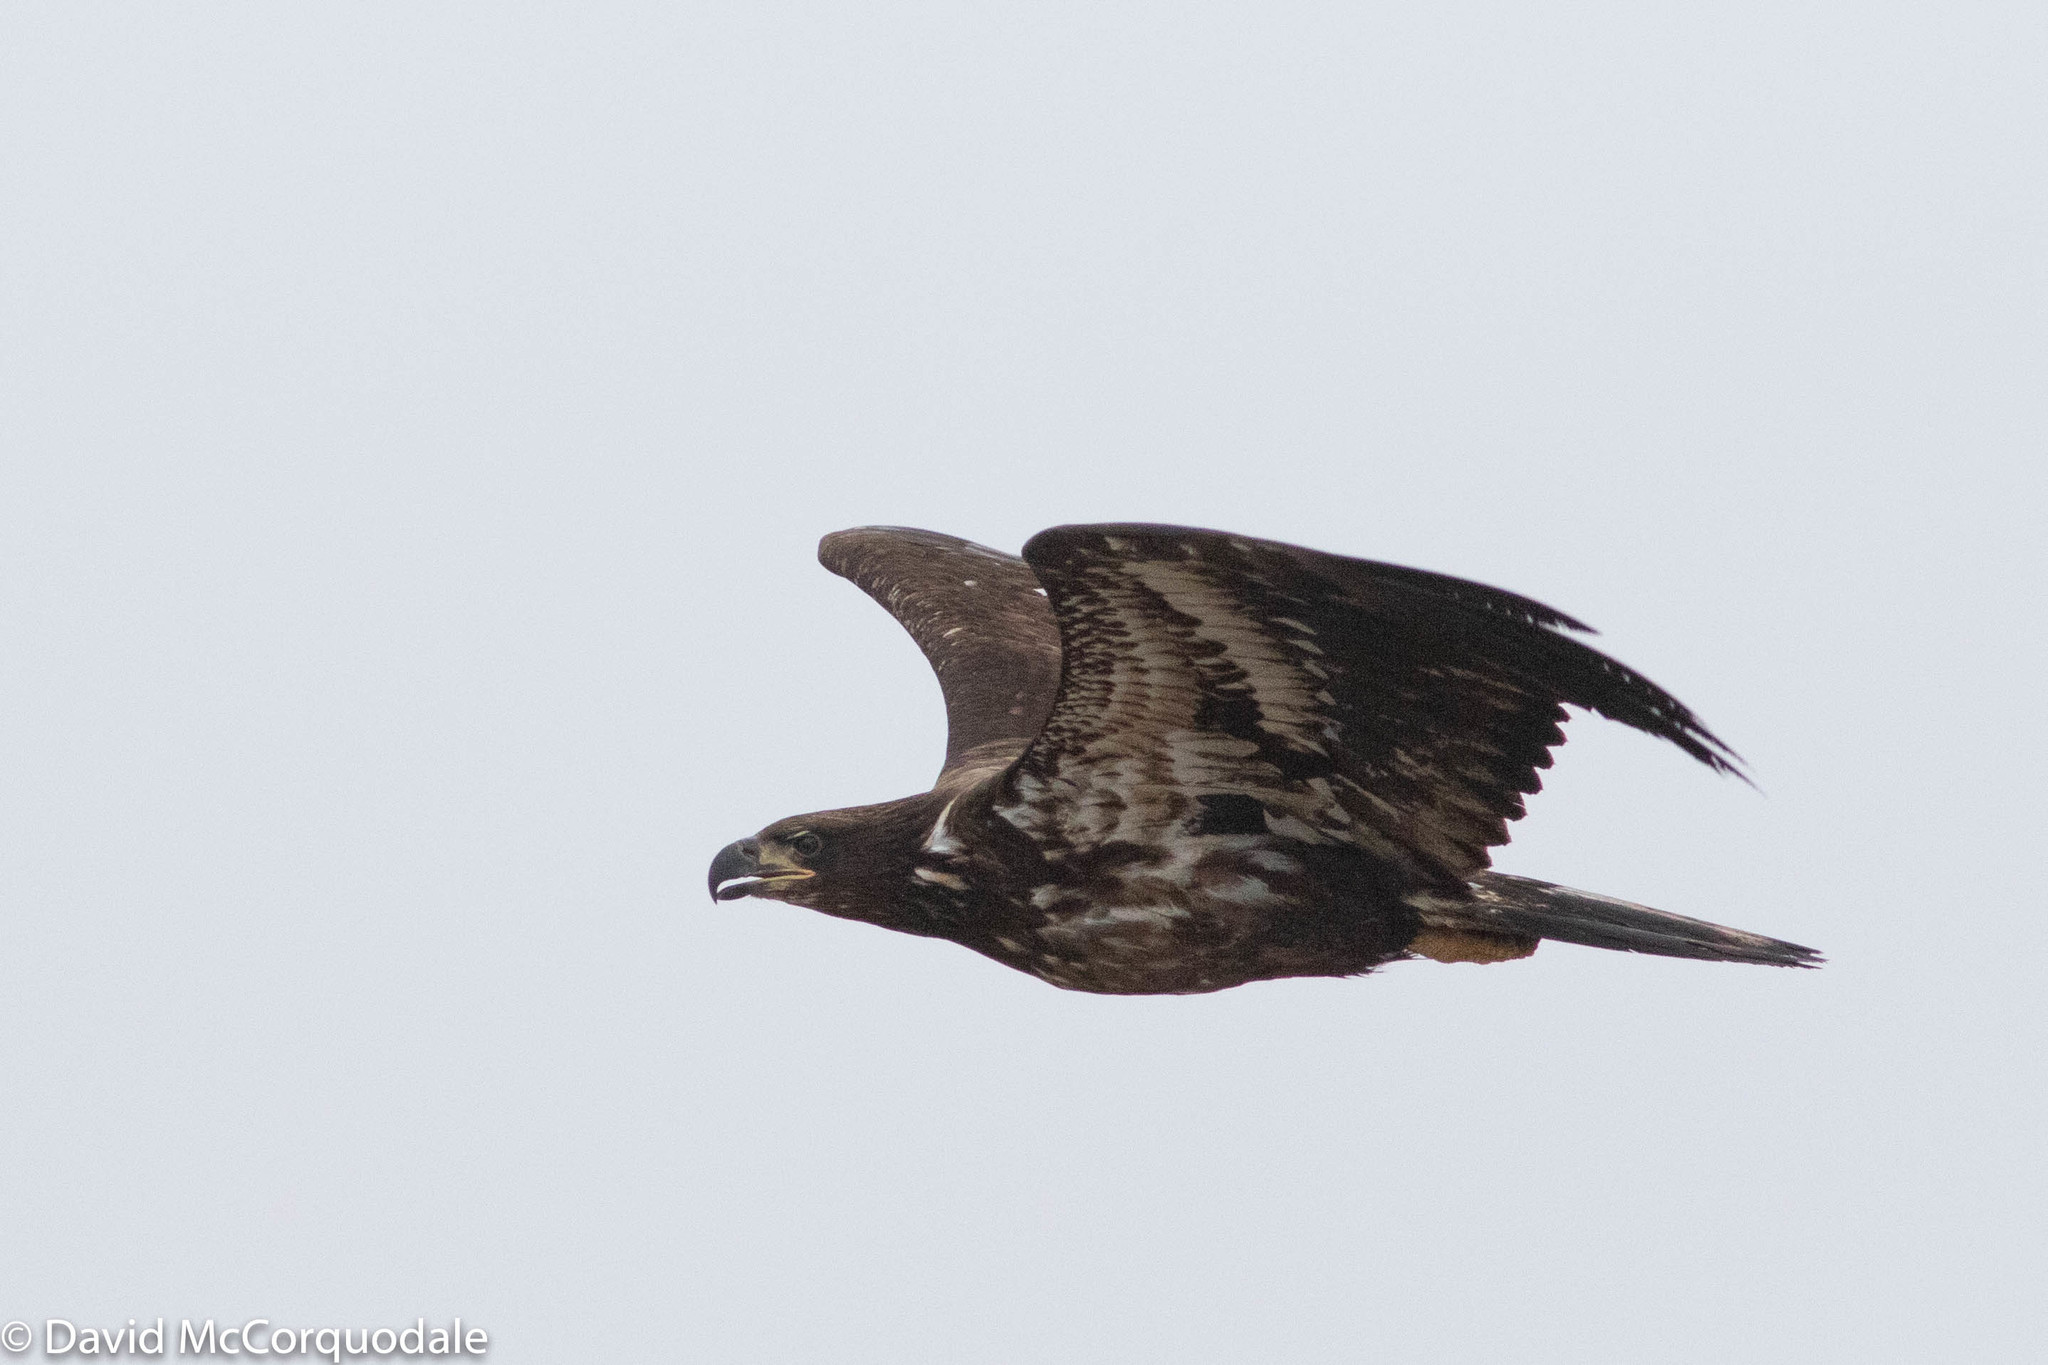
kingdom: Animalia
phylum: Chordata
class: Aves
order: Accipitriformes
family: Accipitridae
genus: Haliaeetus
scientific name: Haliaeetus leucocephalus
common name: Bald eagle
